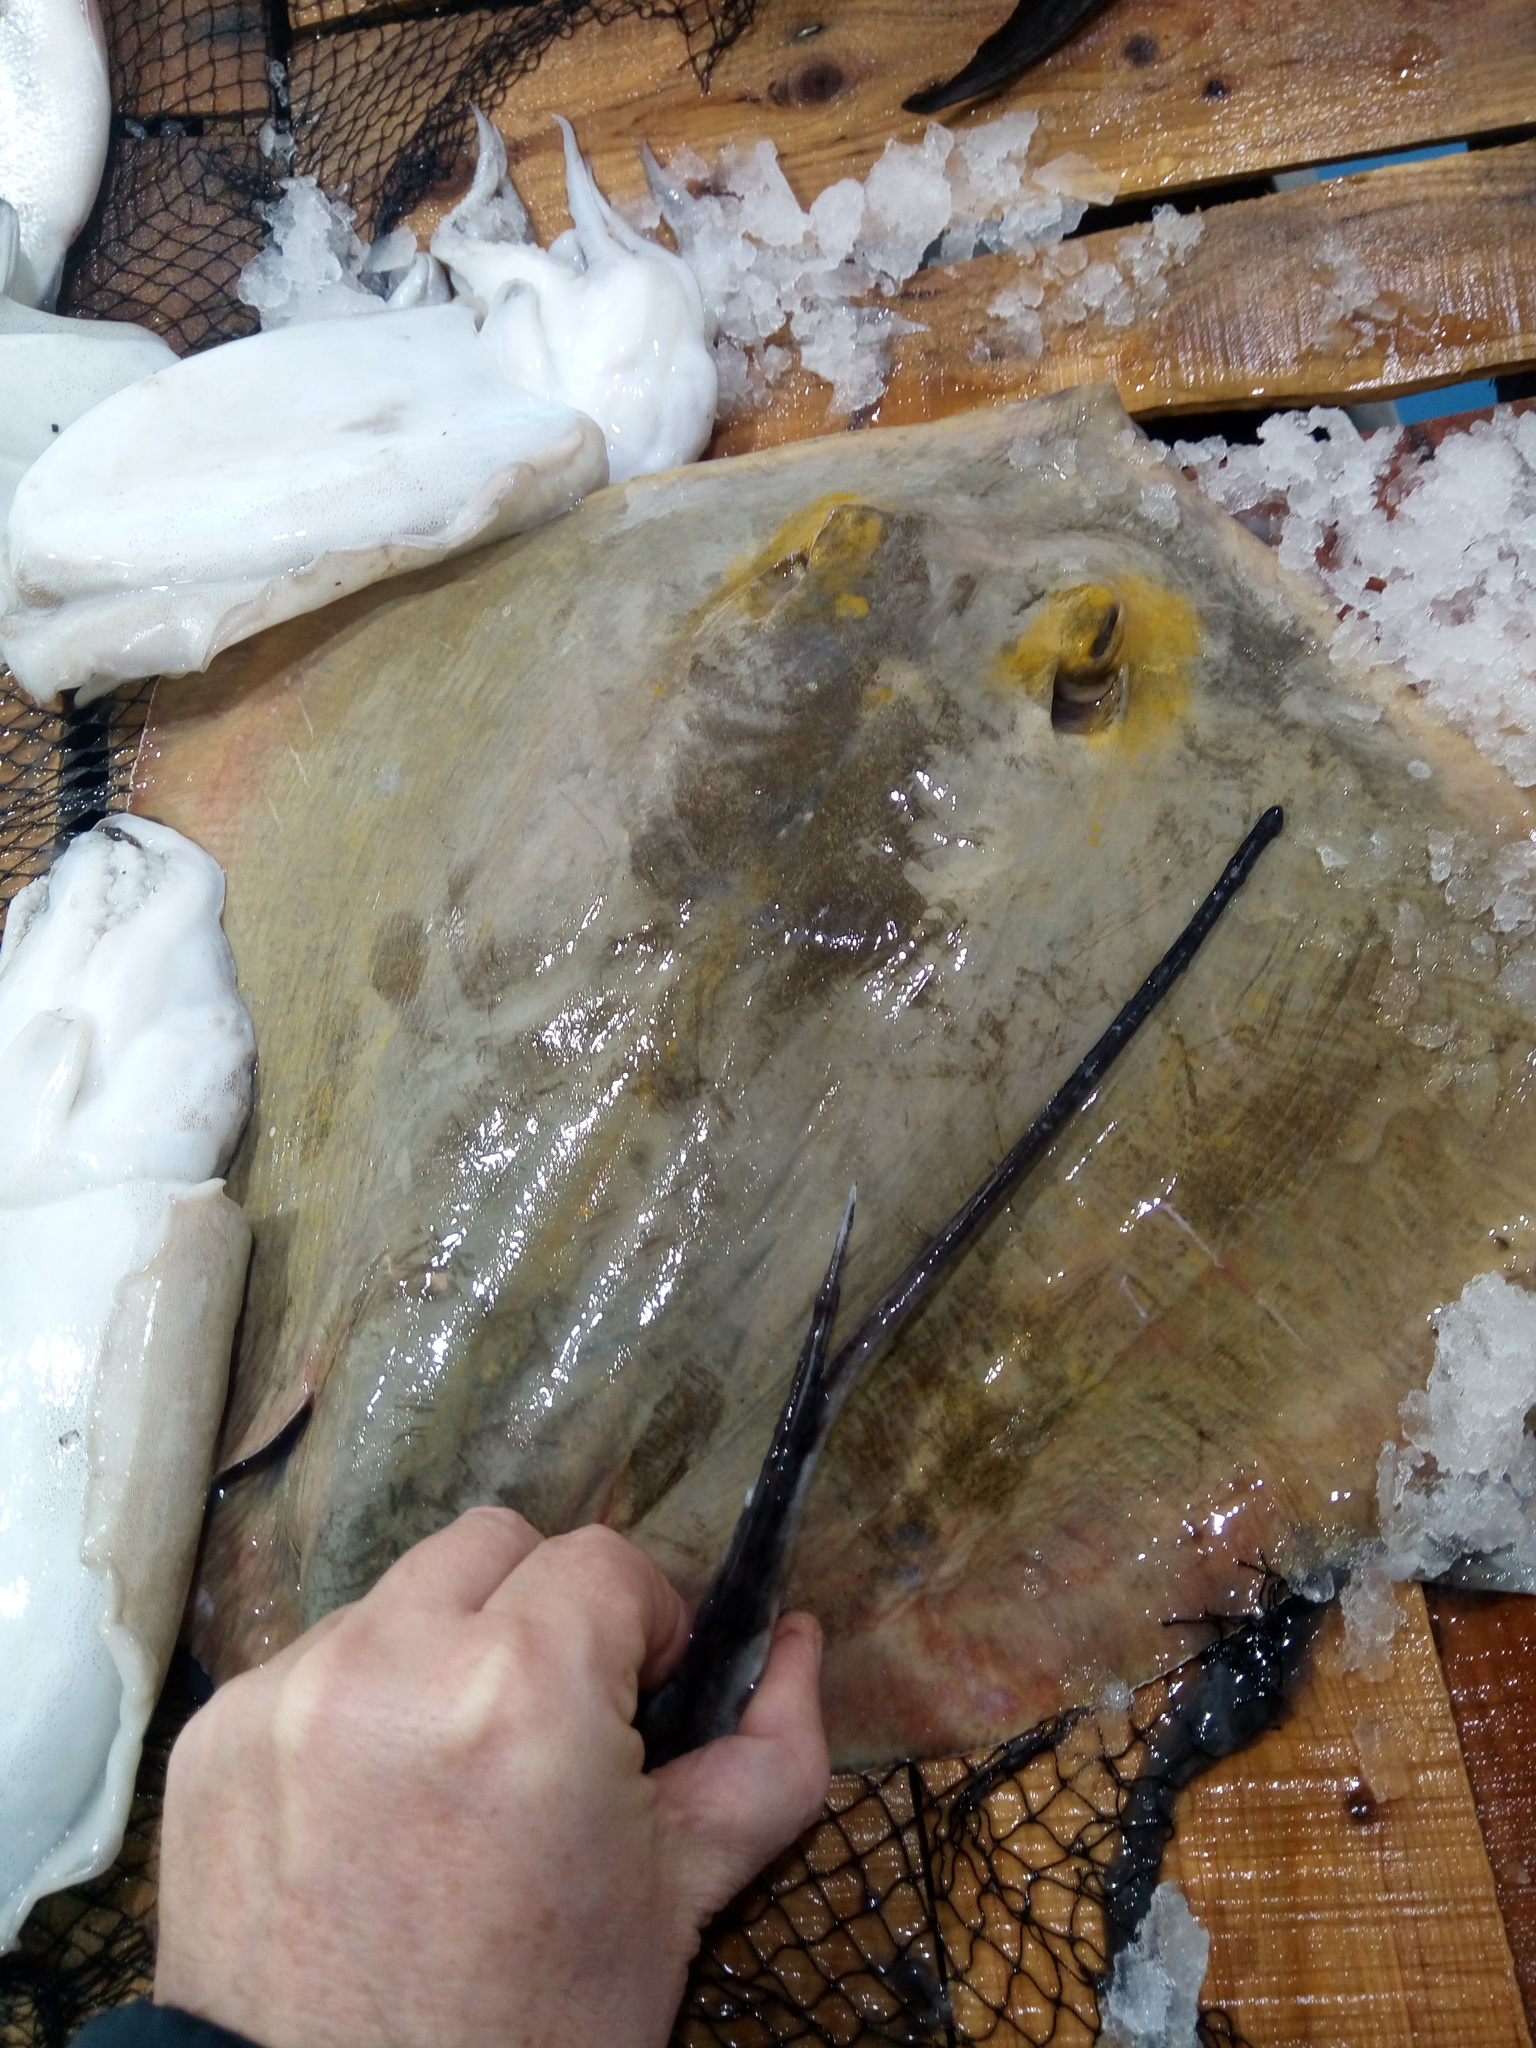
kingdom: Animalia
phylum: Chordata
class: Elasmobranchii
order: Myliobatiformes
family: Dasyatidae
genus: Dasyatis
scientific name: Dasyatis pastinaca
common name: Common stingray
